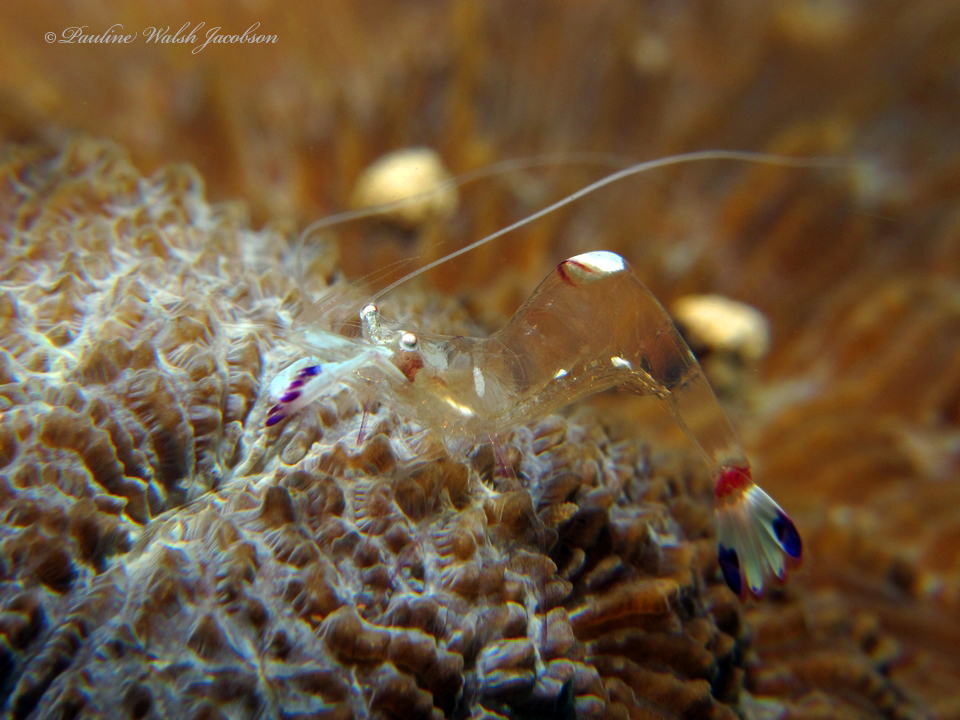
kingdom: Animalia
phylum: Arthropoda
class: Malacostraca
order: Decapoda
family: Palaemonidae
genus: Ancylomenes
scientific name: Ancylomenes magnificus
